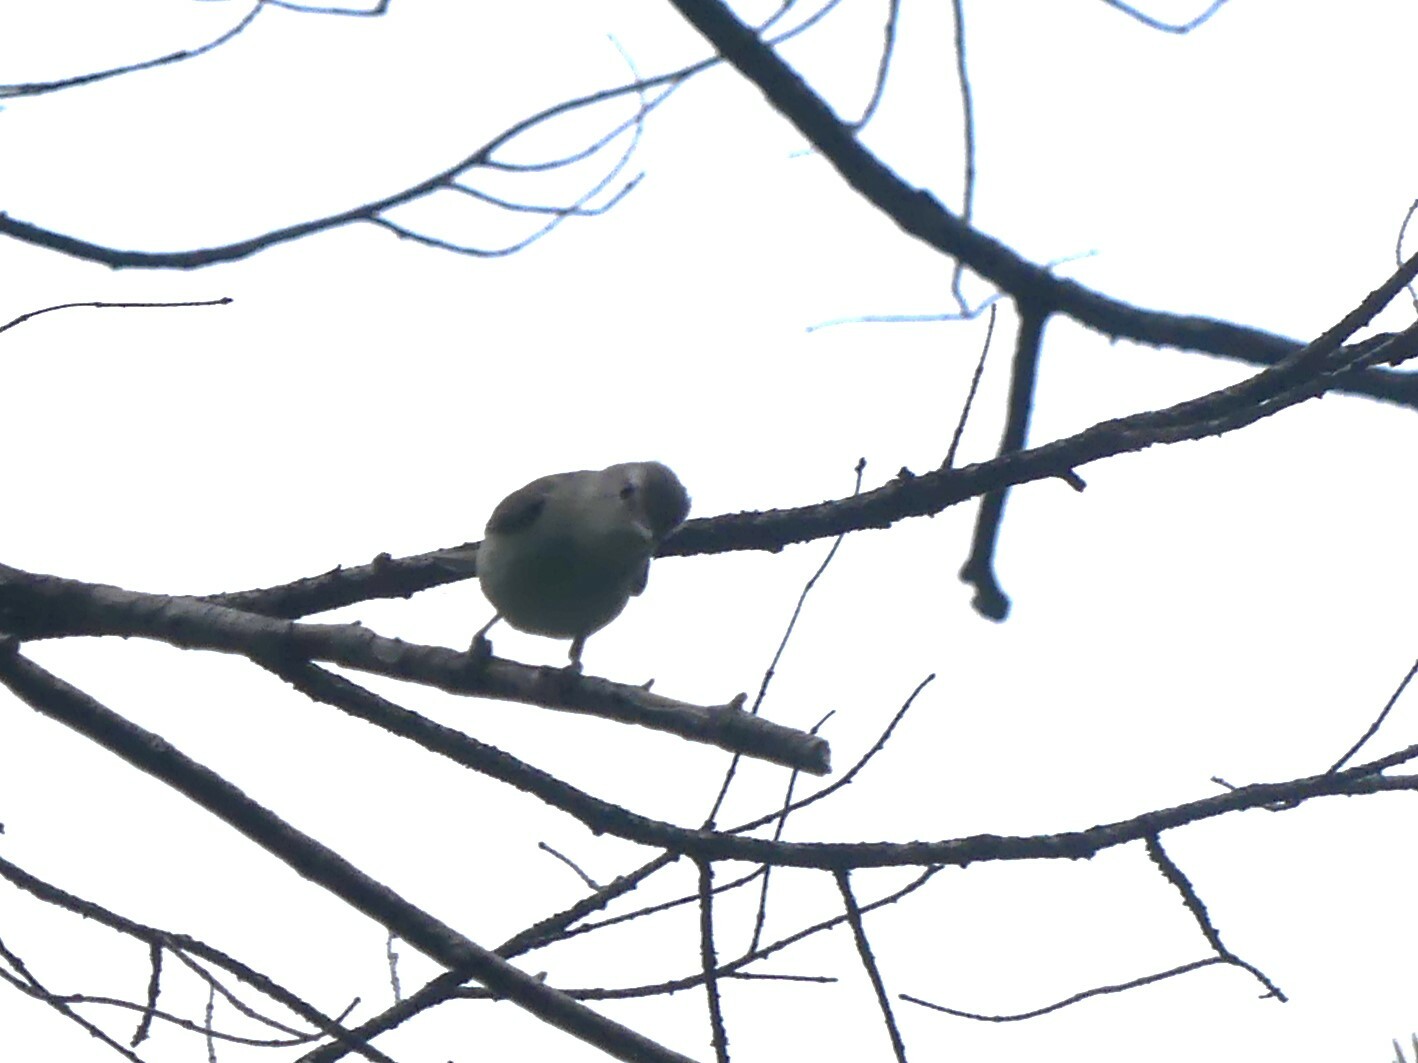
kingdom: Animalia
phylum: Chordata
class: Aves
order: Passeriformes
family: Vireonidae
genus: Vireo
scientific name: Vireo gilvus
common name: Warbling vireo
